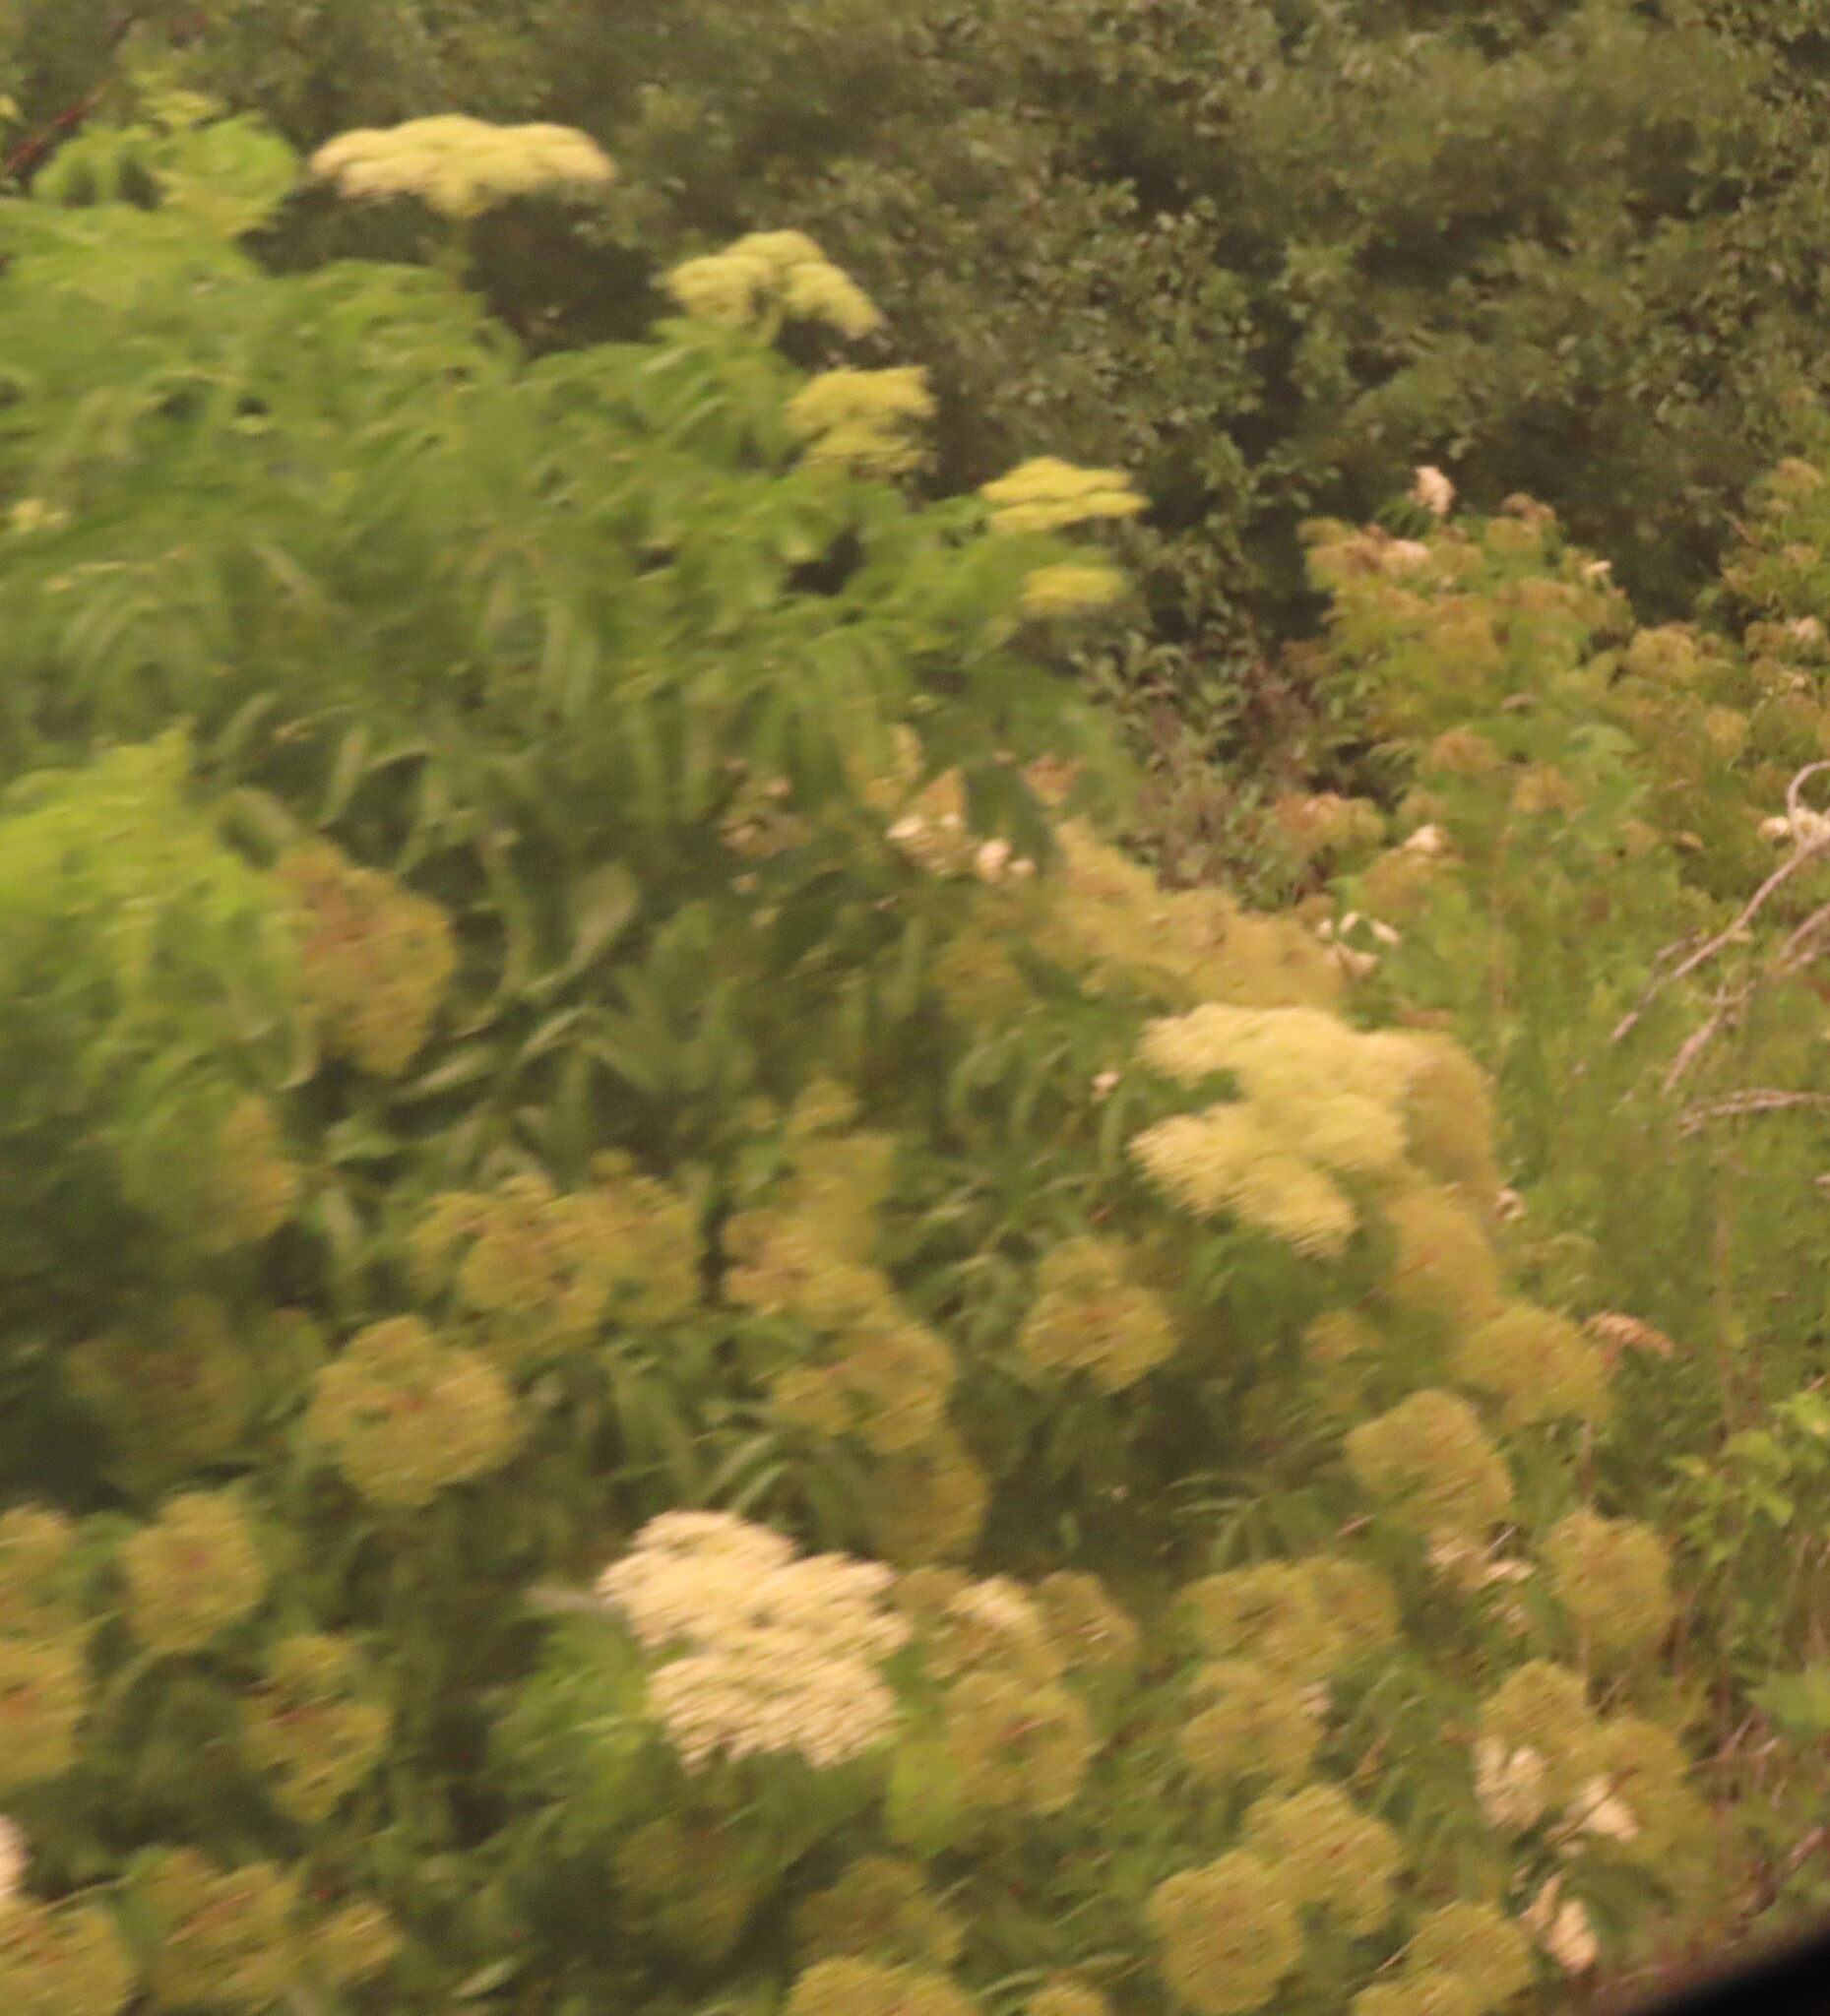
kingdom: Plantae
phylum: Tracheophyta
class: Magnoliopsida
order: Dipsacales
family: Viburnaceae
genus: Sambucus
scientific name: Sambucus canadensis
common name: American elder
